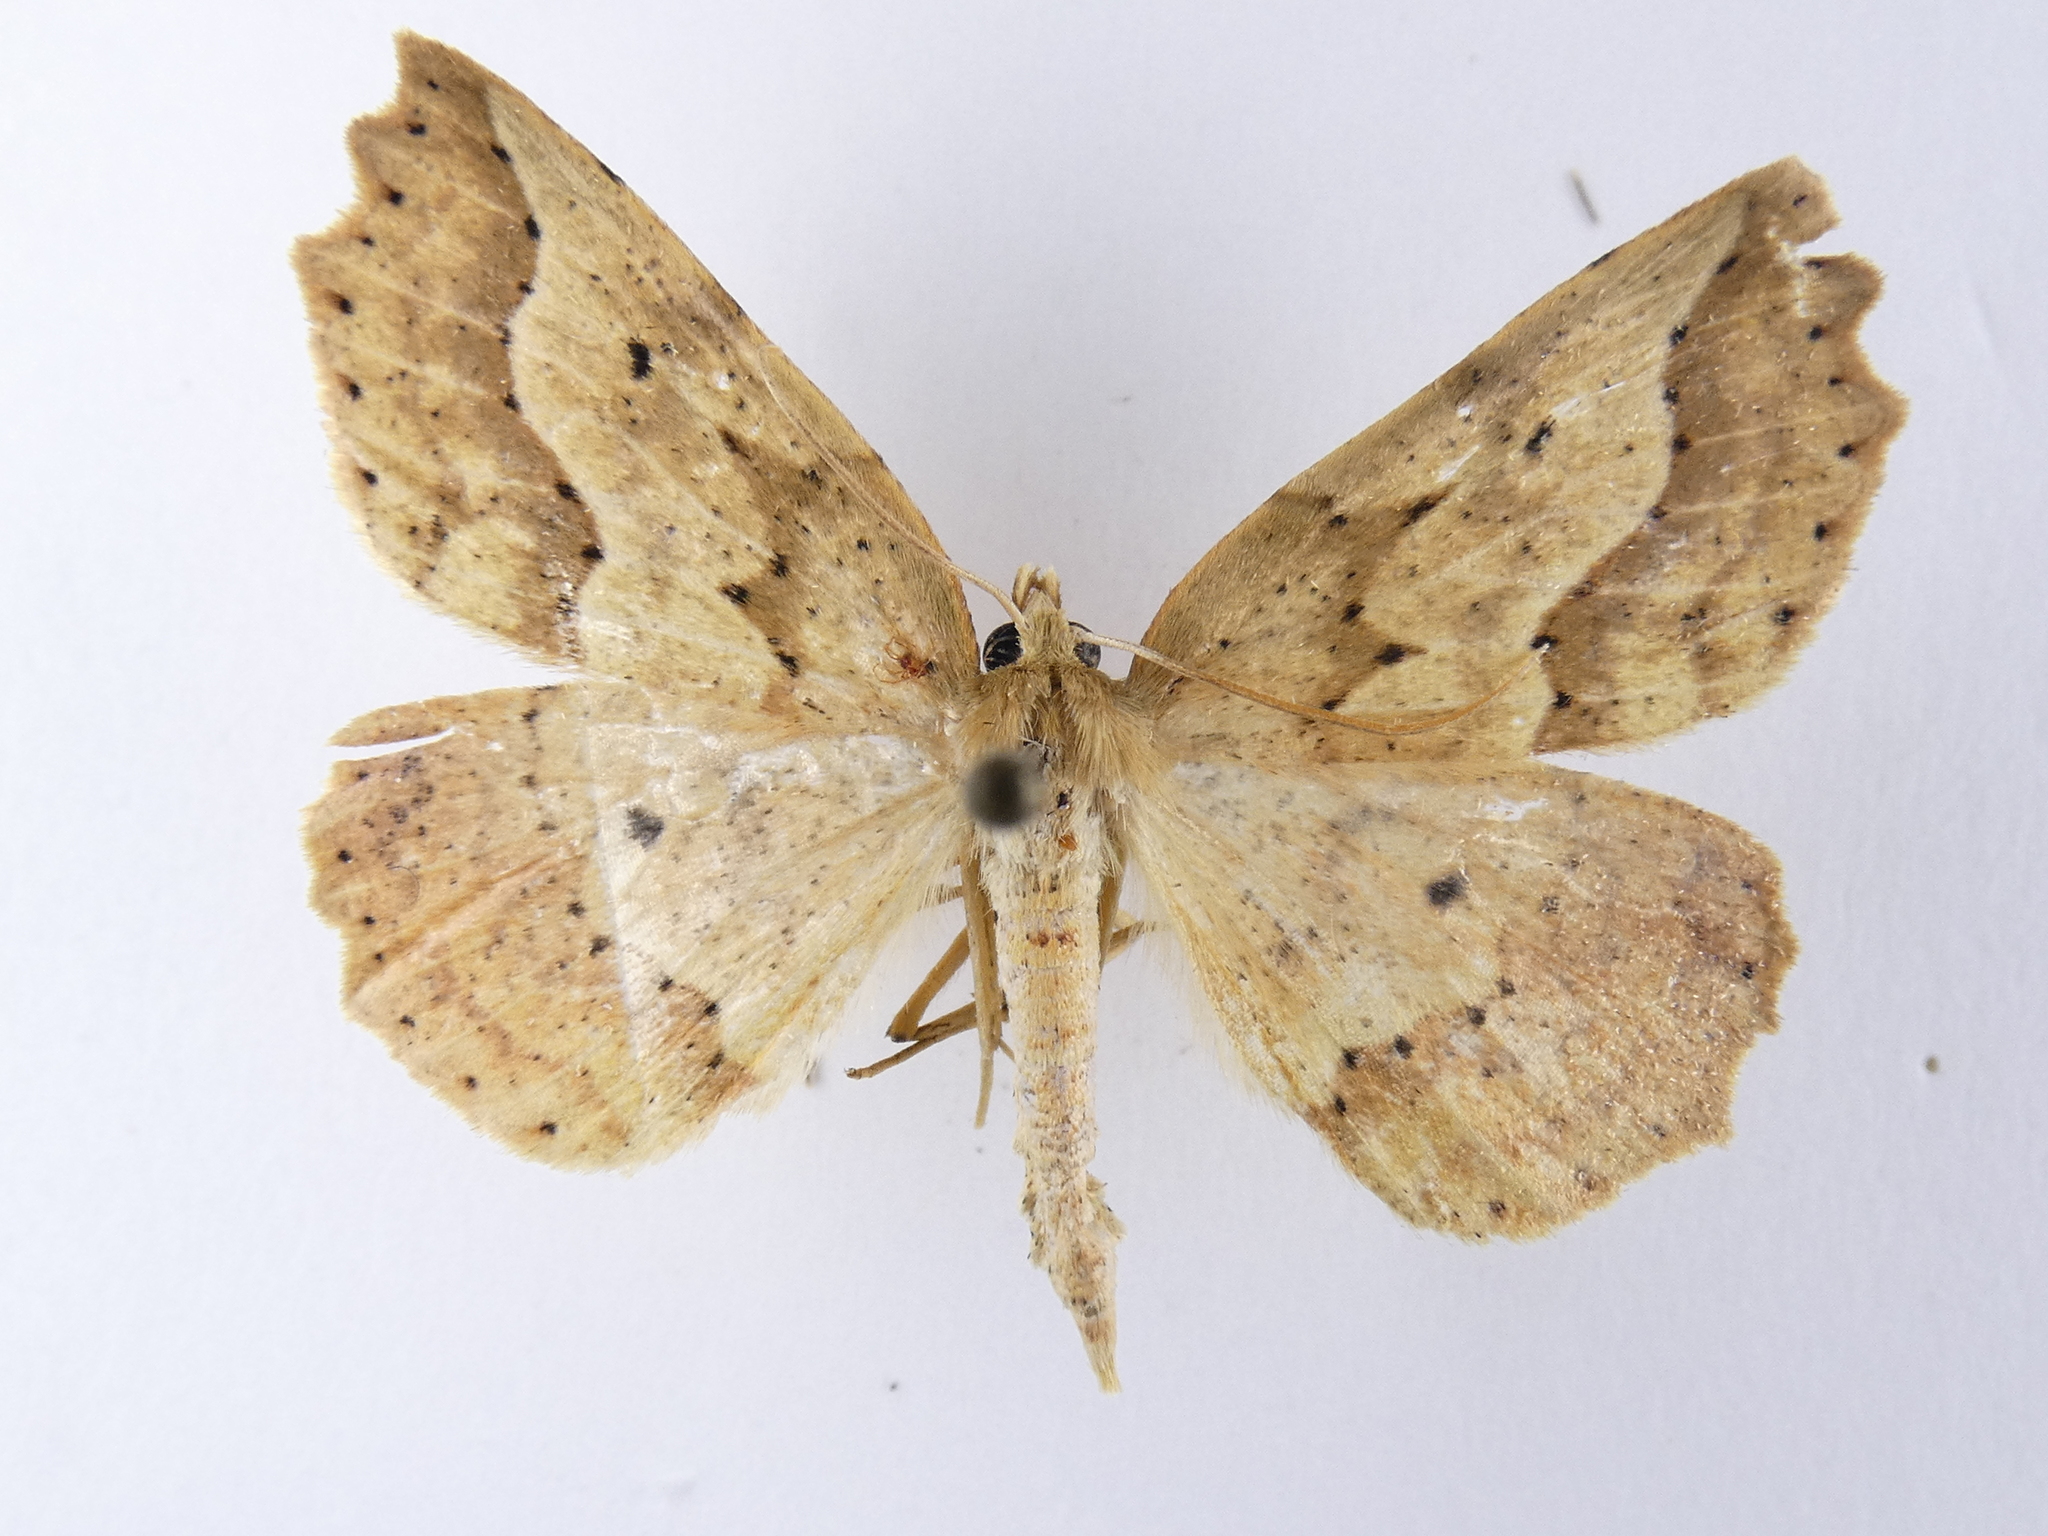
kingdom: Animalia
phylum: Arthropoda
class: Insecta
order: Lepidoptera
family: Geometridae
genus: Ischalis
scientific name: Ischalis variabilis
